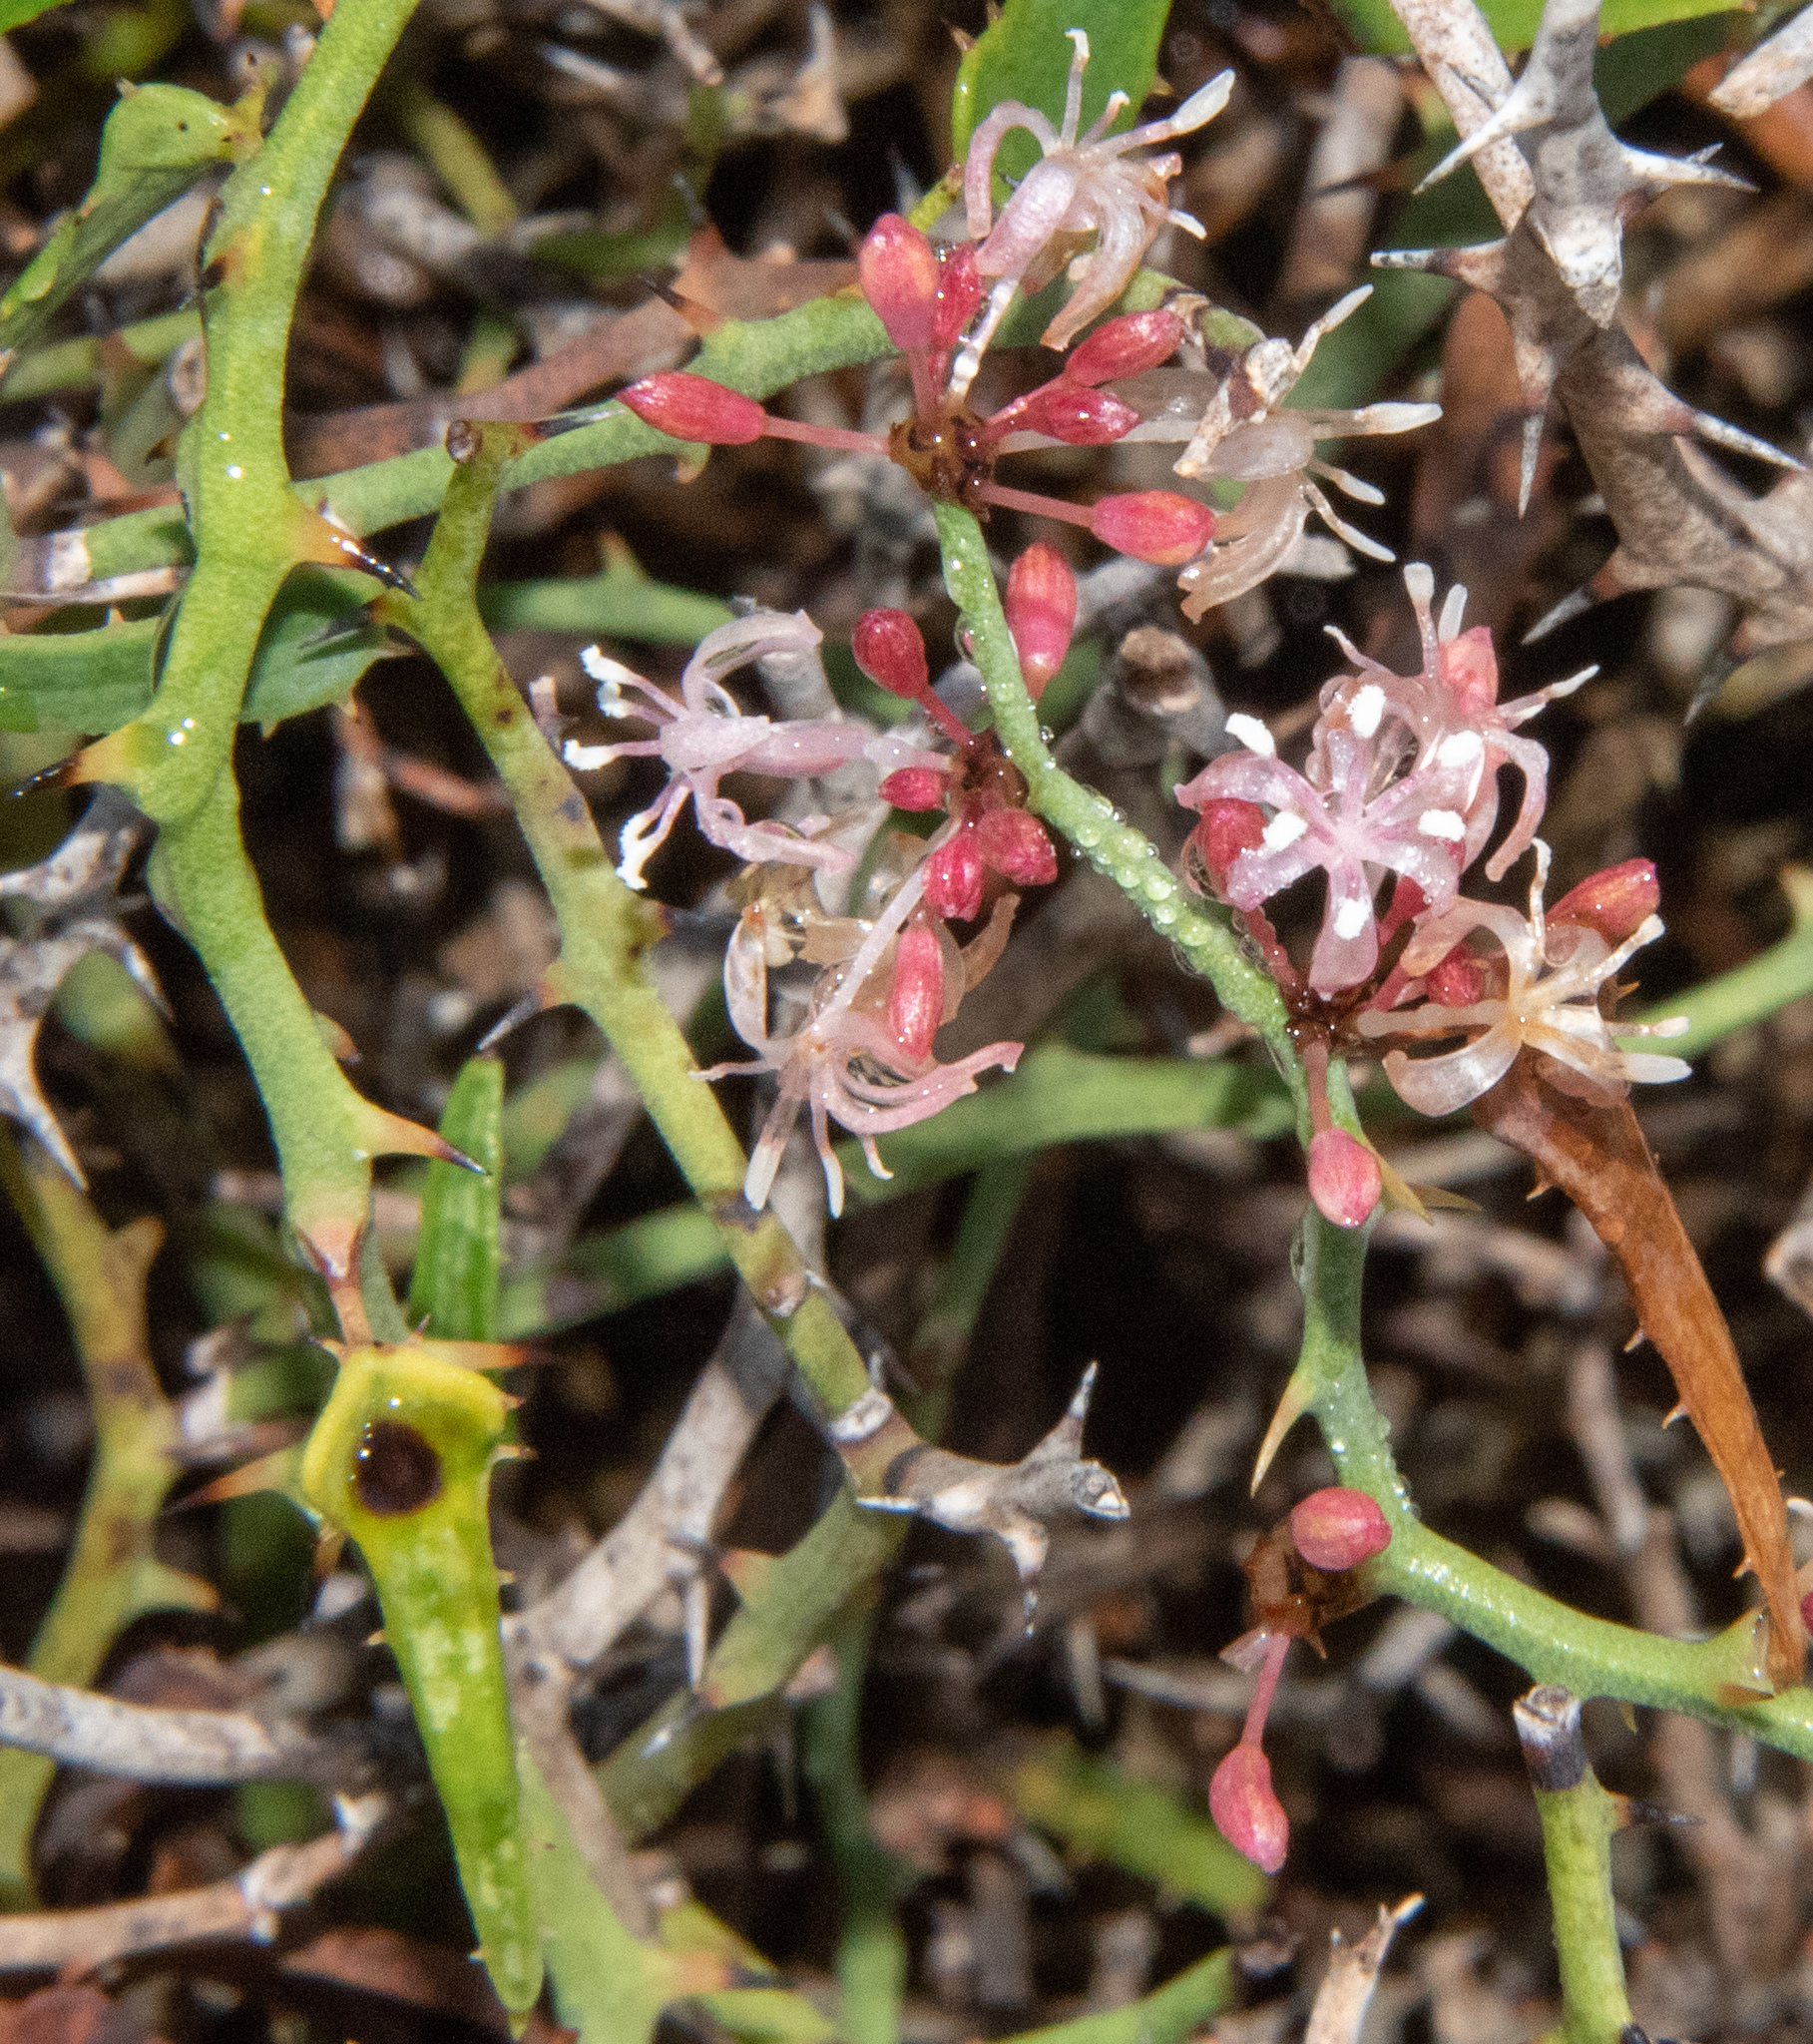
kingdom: Plantae
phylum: Tracheophyta
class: Liliopsida
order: Liliales
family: Smilacaceae
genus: Smilax
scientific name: Smilax aspera
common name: Common smilax
